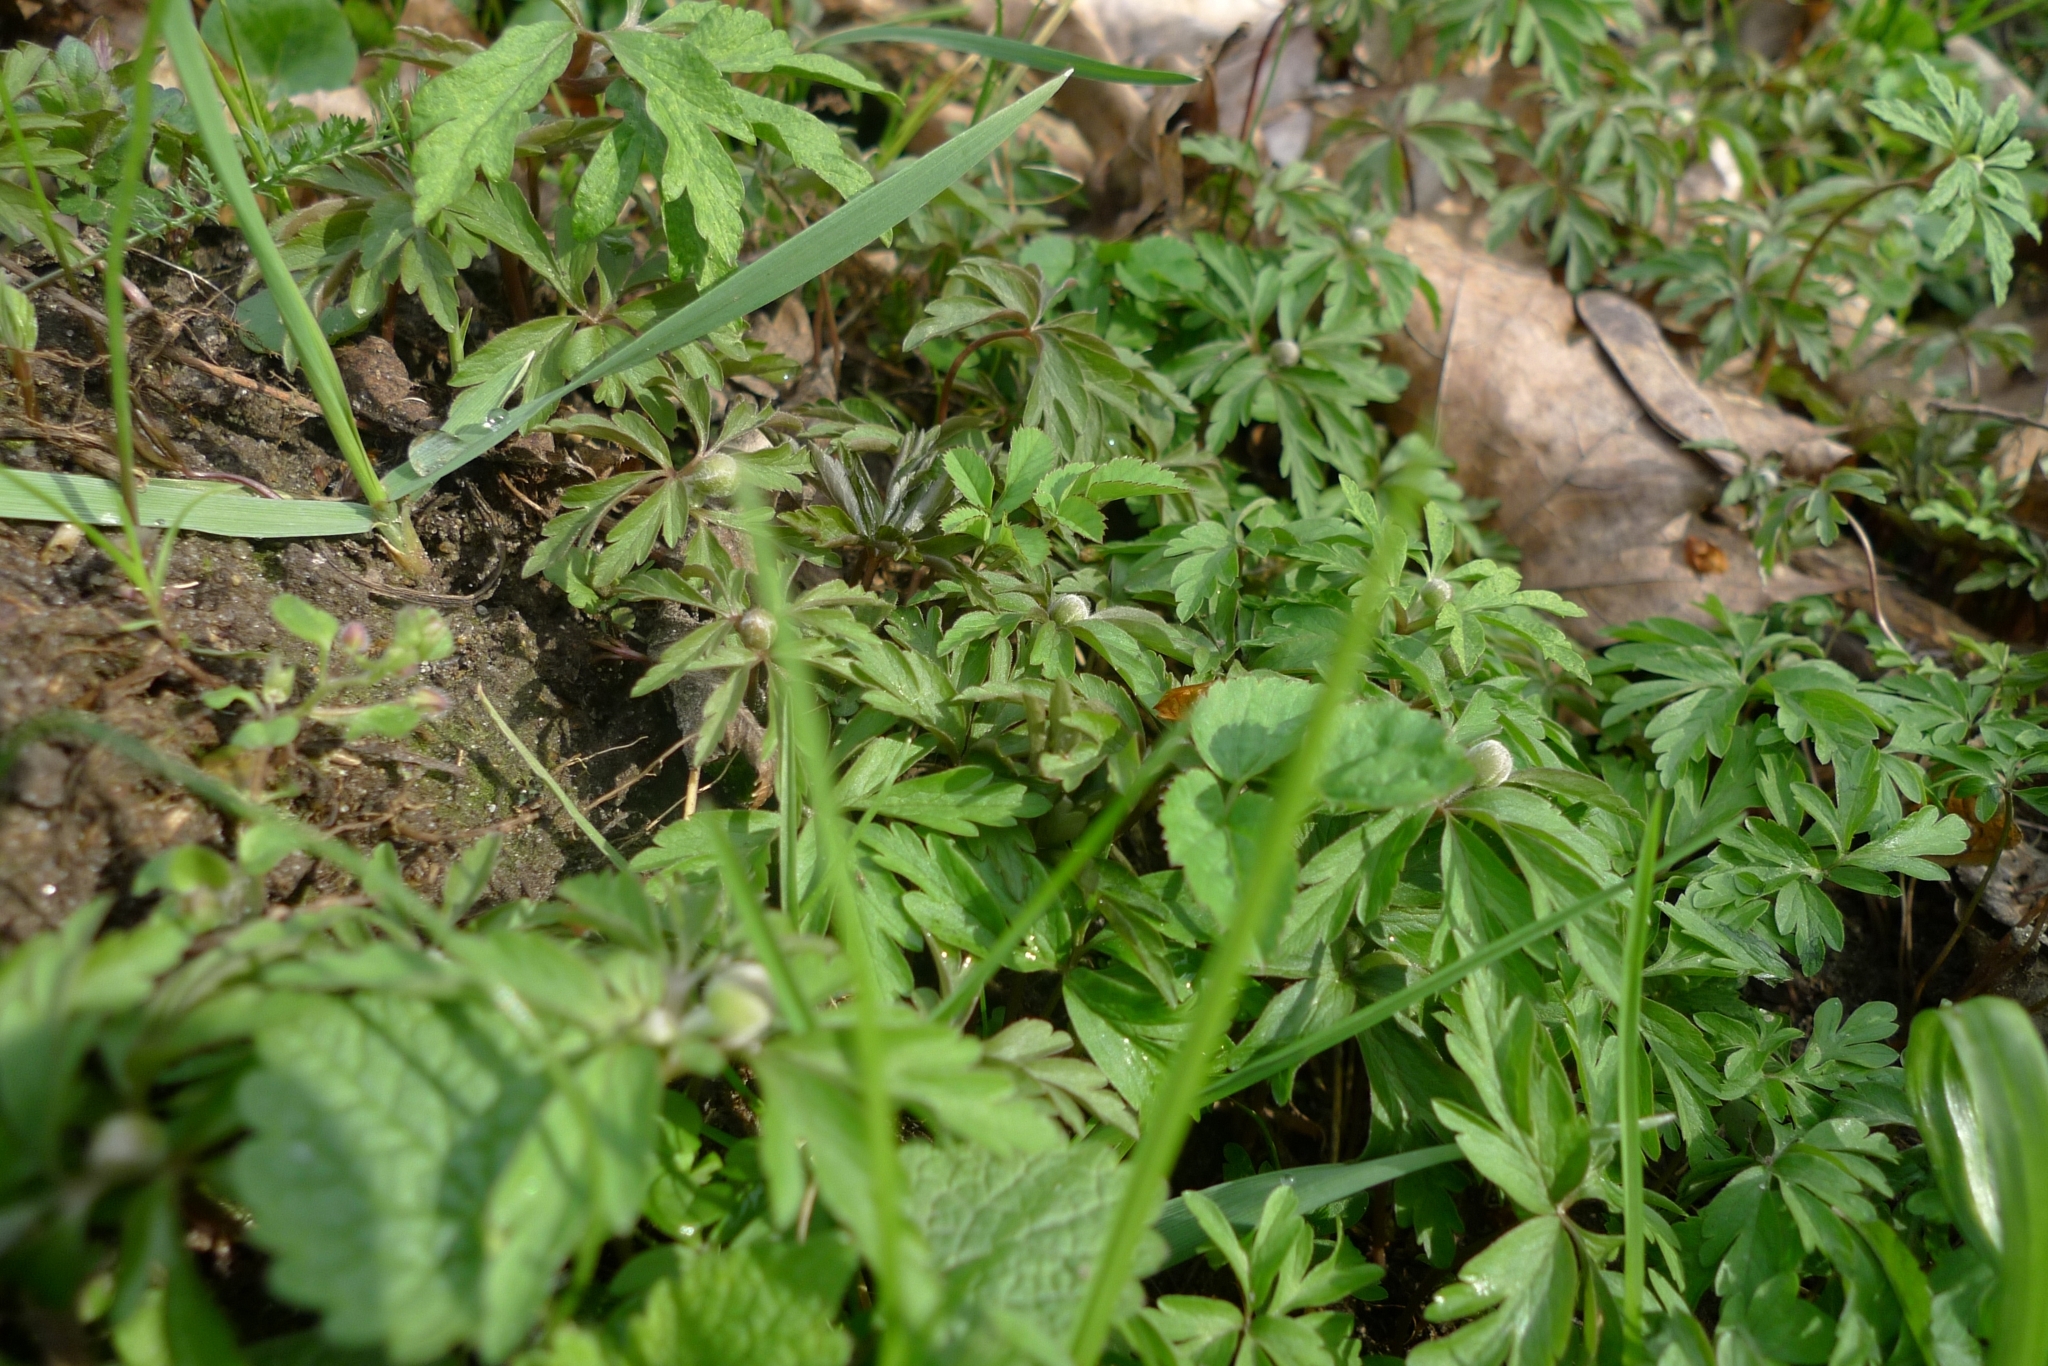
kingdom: Plantae
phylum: Tracheophyta
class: Magnoliopsida
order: Ranunculales
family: Ranunculaceae
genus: Anemone
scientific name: Anemone ranunculoides
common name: Yellow anemone
